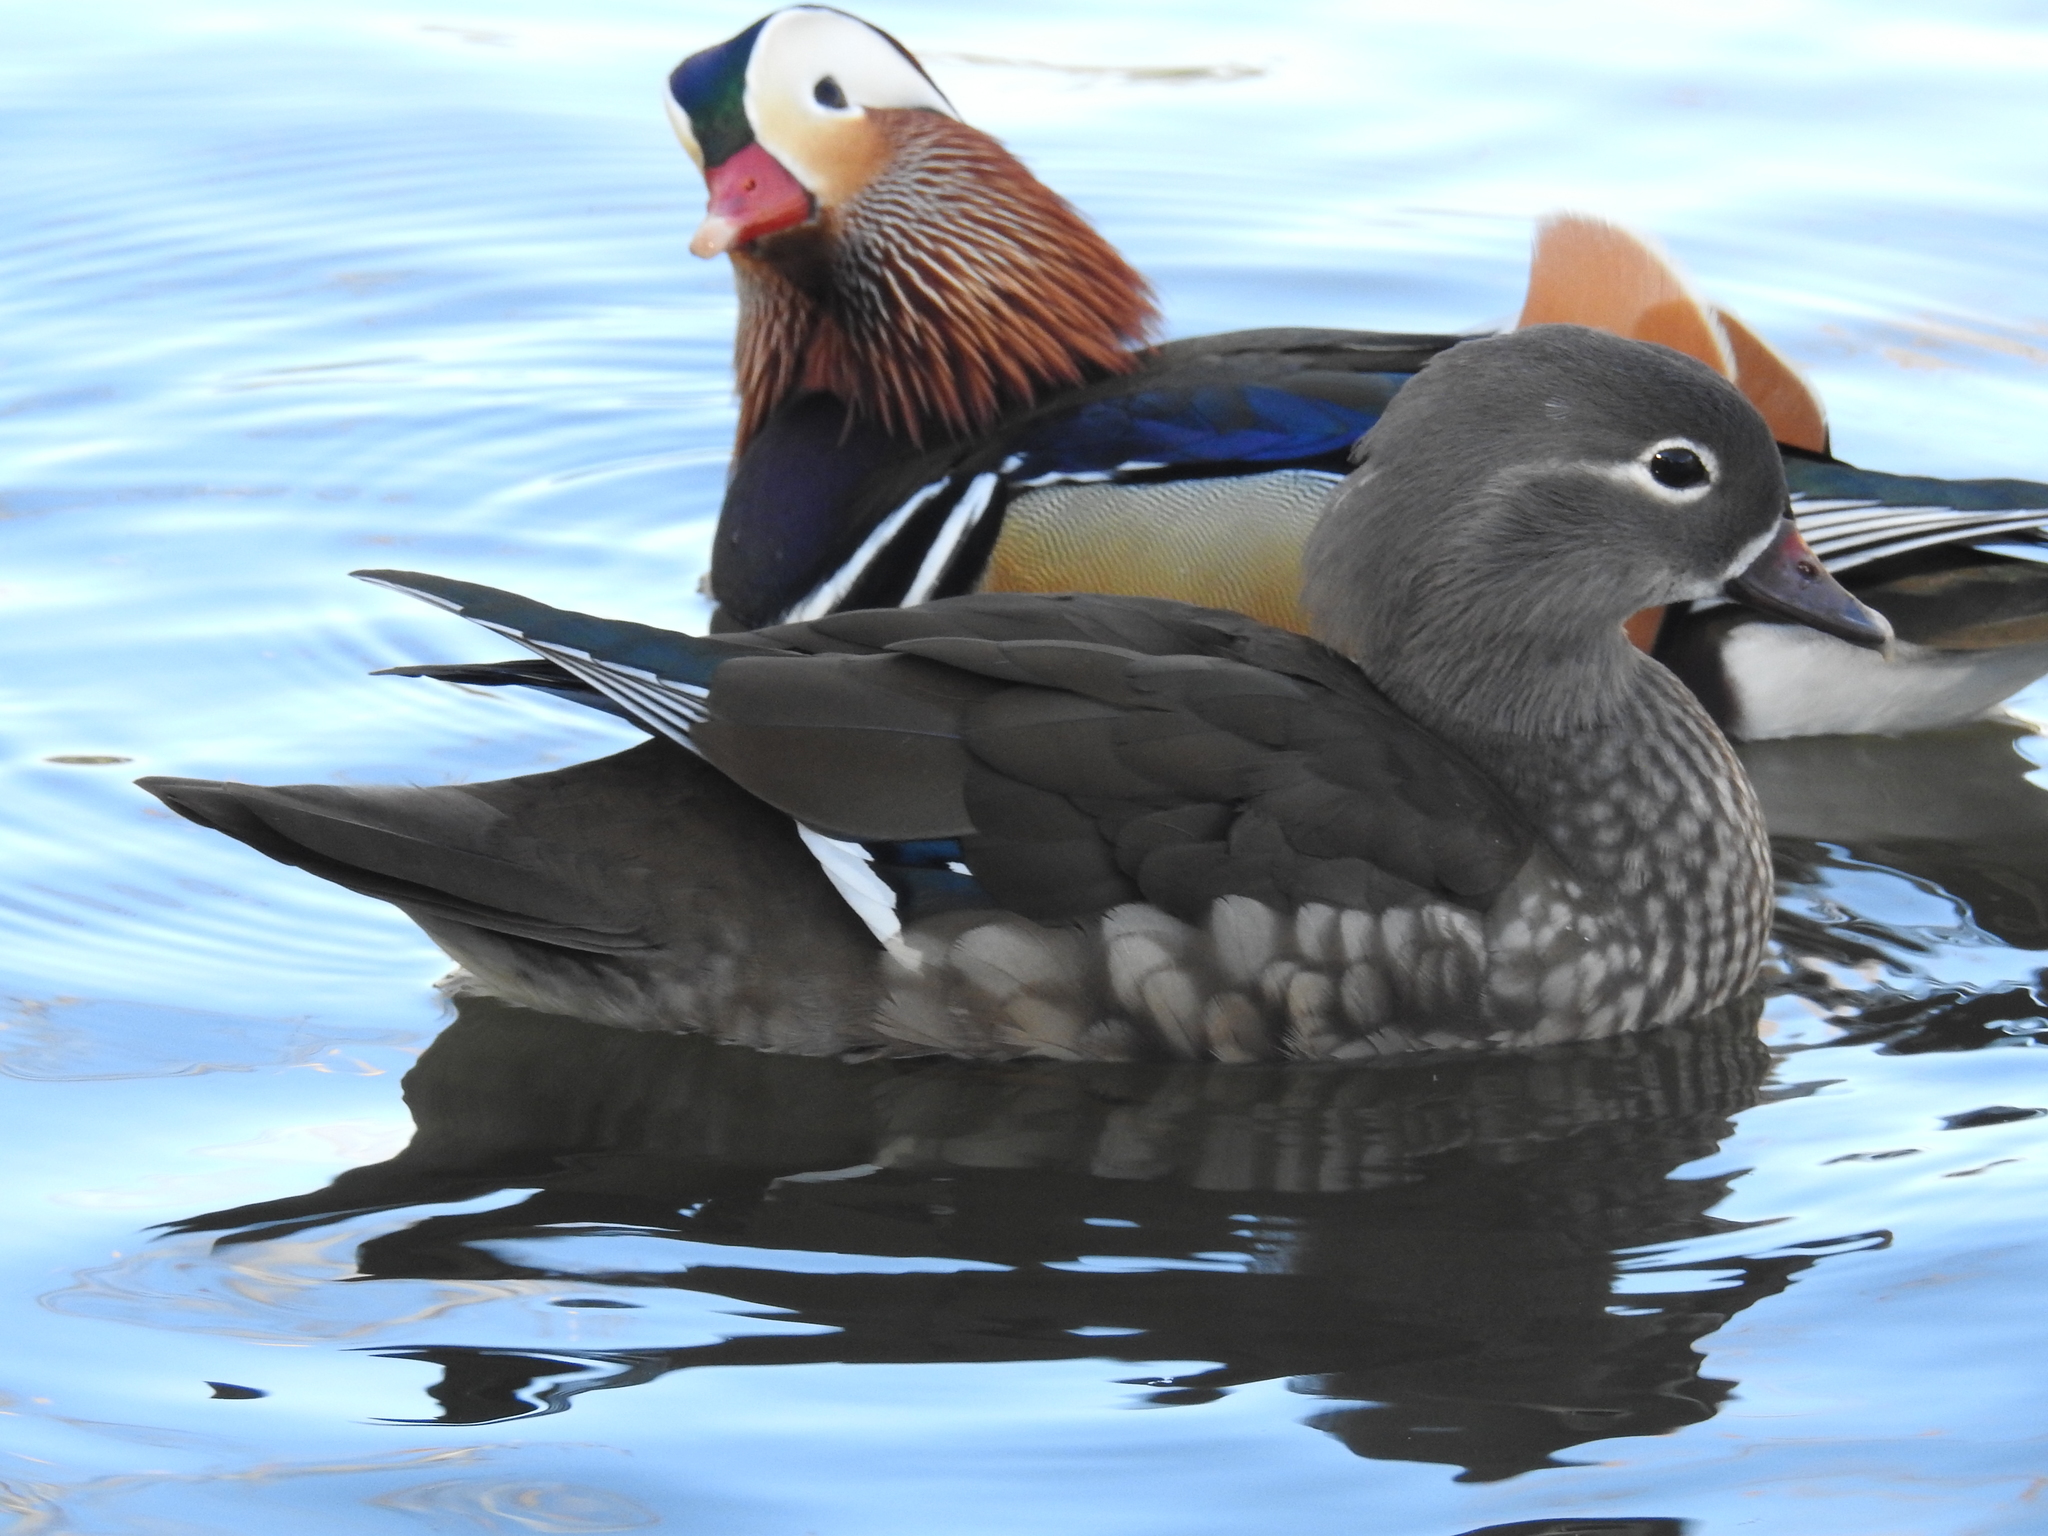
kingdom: Animalia
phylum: Chordata
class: Aves
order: Anseriformes
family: Anatidae
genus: Aix
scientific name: Aix galericulata
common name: Mandarin duck
